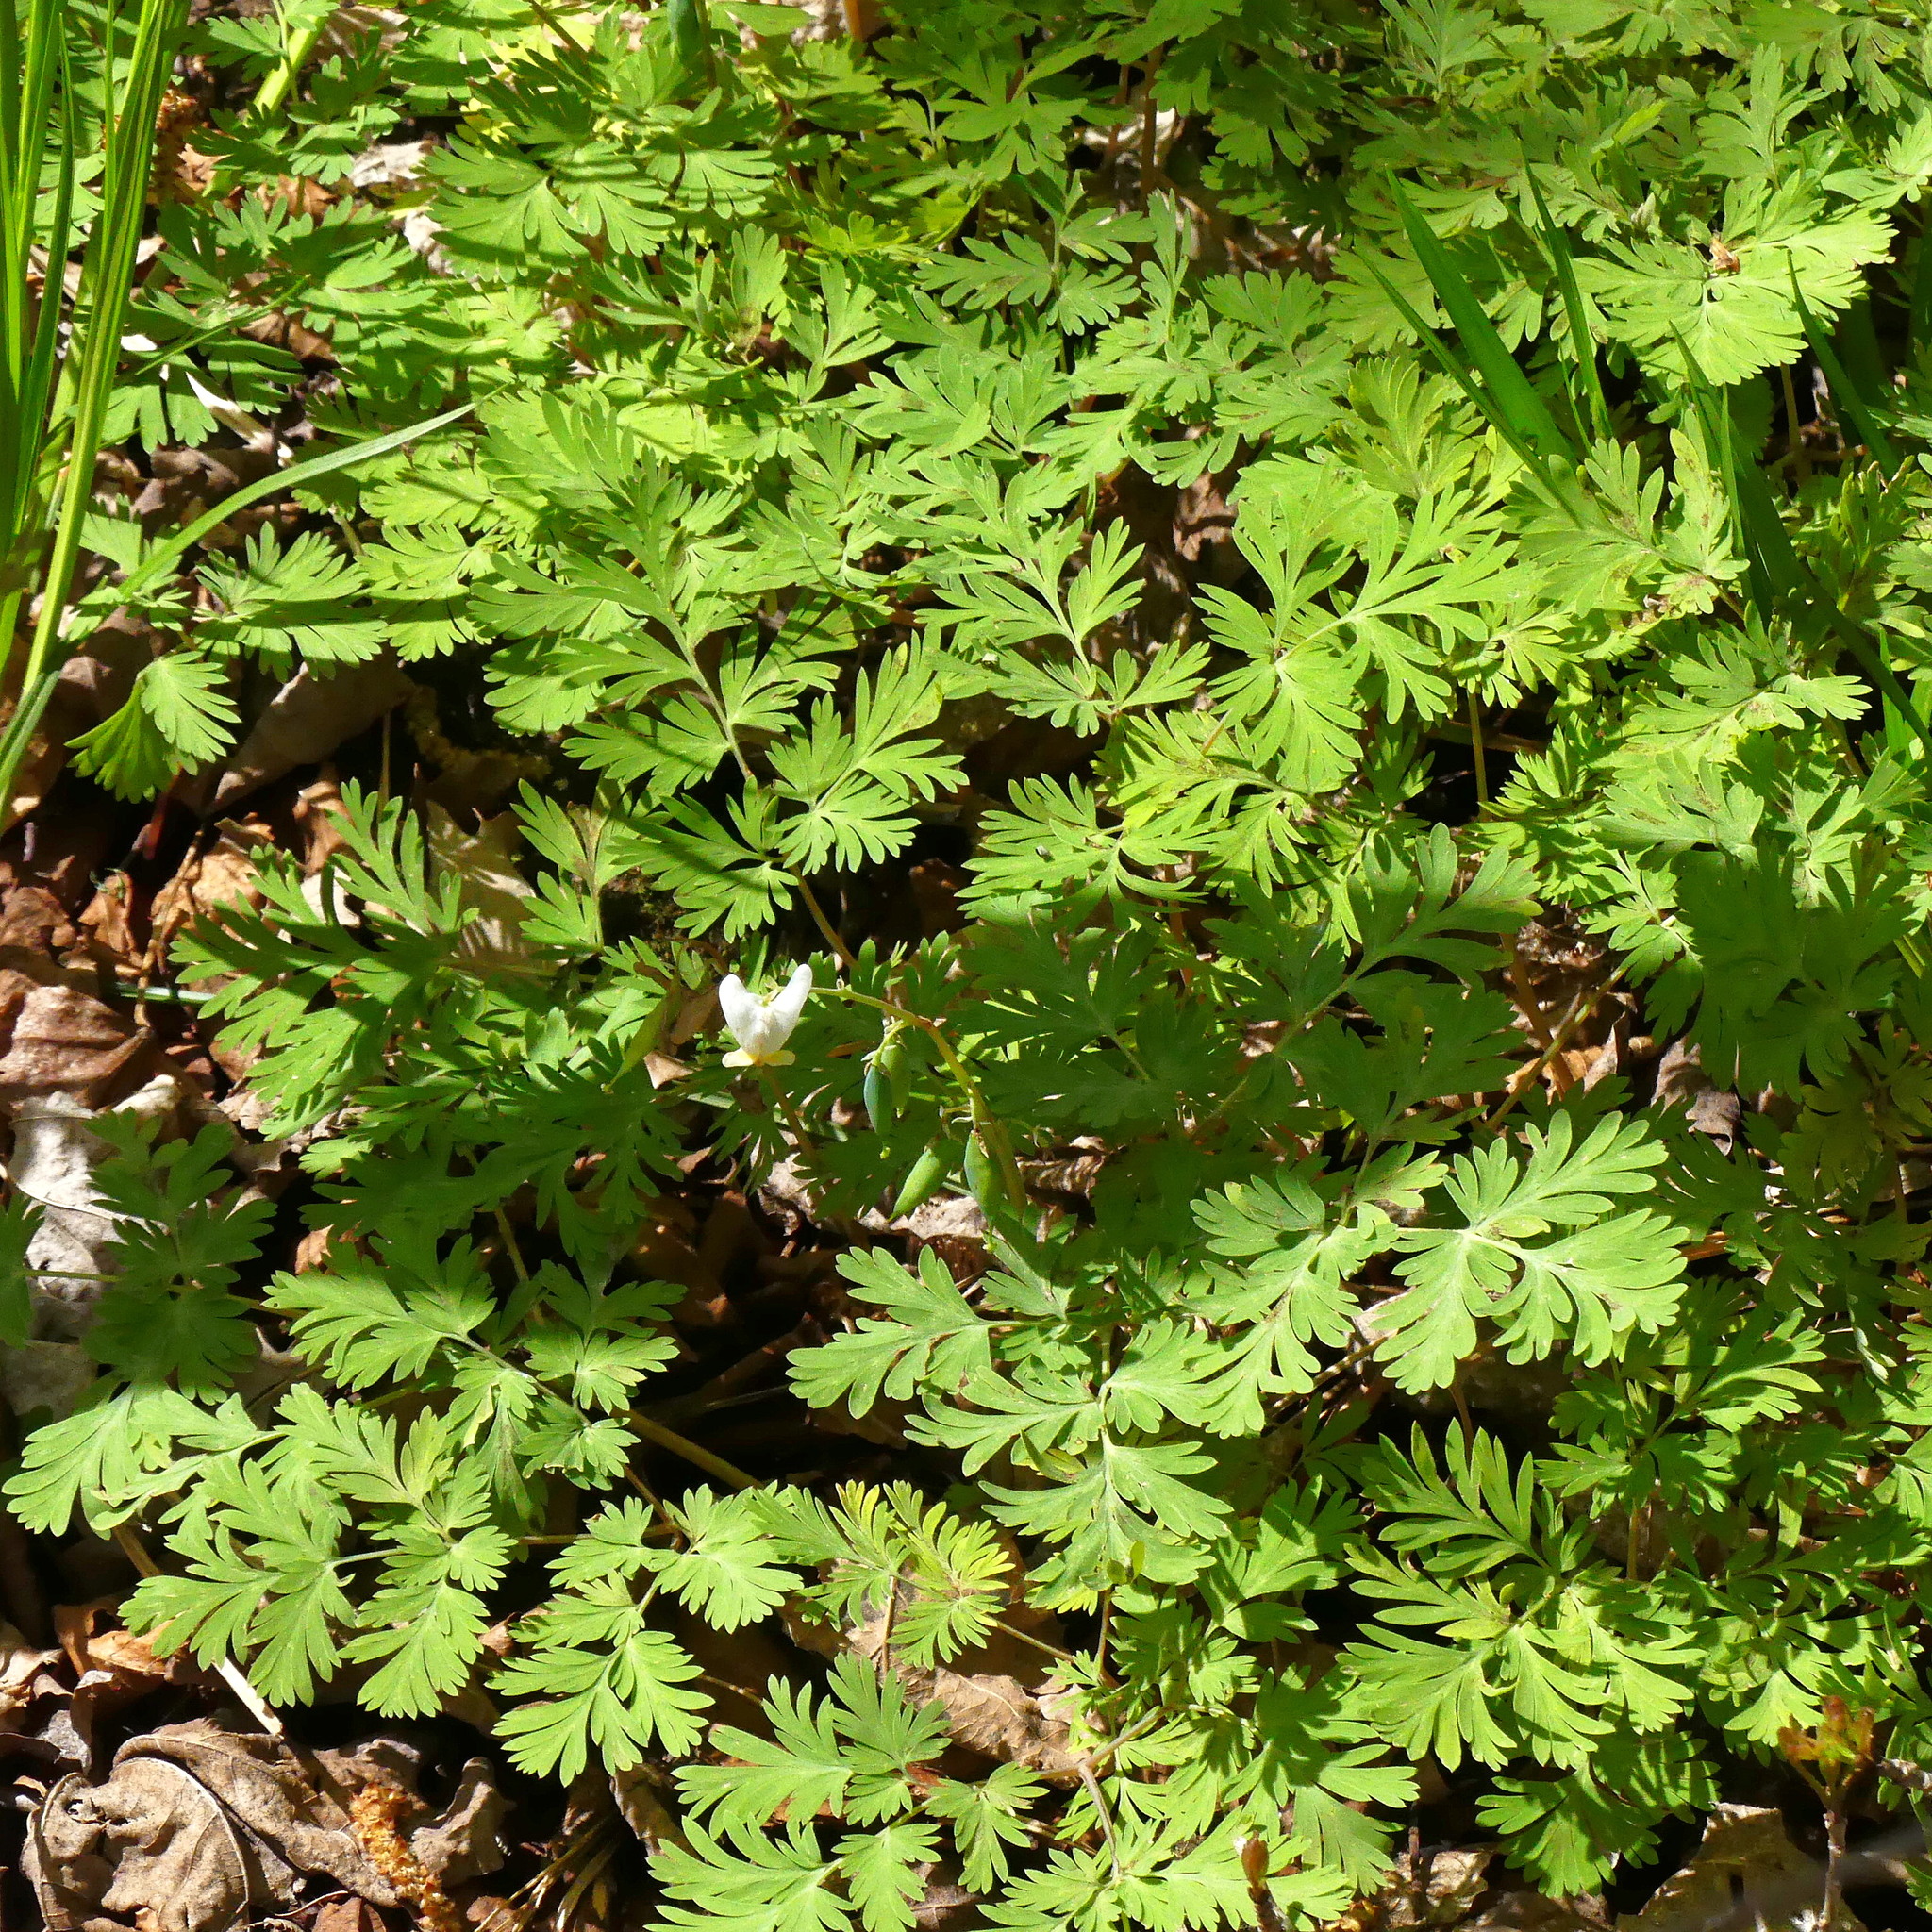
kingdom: Plantae
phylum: Tracheophyta
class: Magnoliopsida
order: Ranunculales
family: Papaveraceae
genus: Dicentra
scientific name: Dicentra cucullaria
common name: Dutchman's breeches
